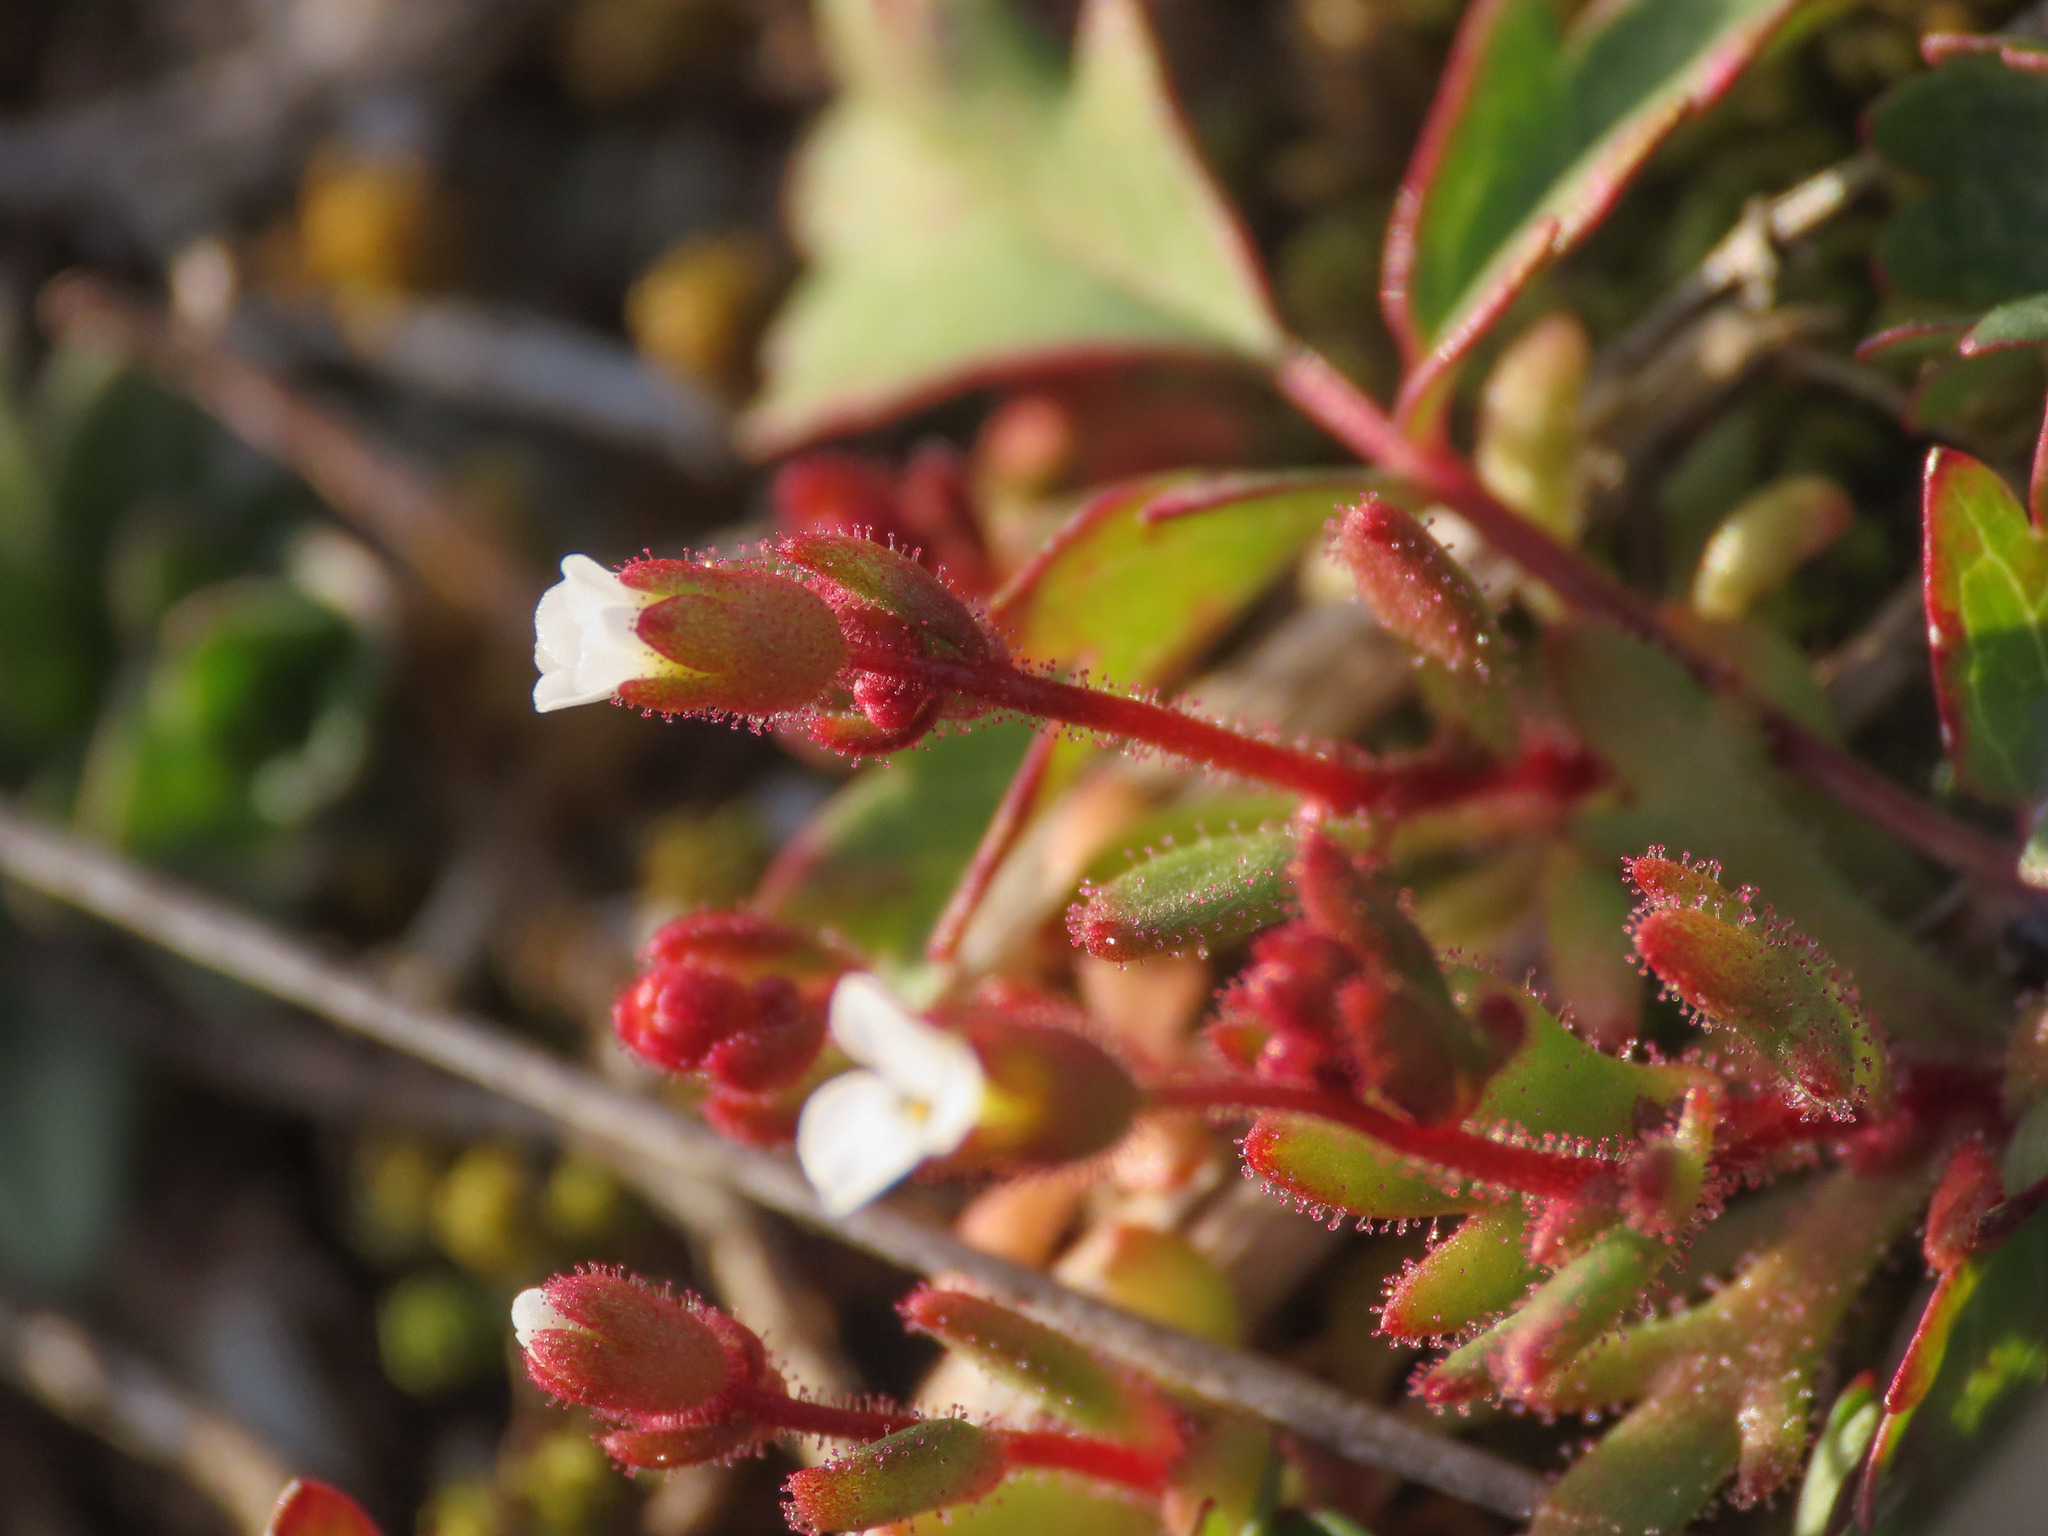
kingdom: Plantae
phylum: Tracheophyta
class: Magnoliopsida
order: Saxifragales
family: Saxifragaceae
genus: Saxifraga
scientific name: Saxifraga tridactylites
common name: Rue-leaved saxifrage
